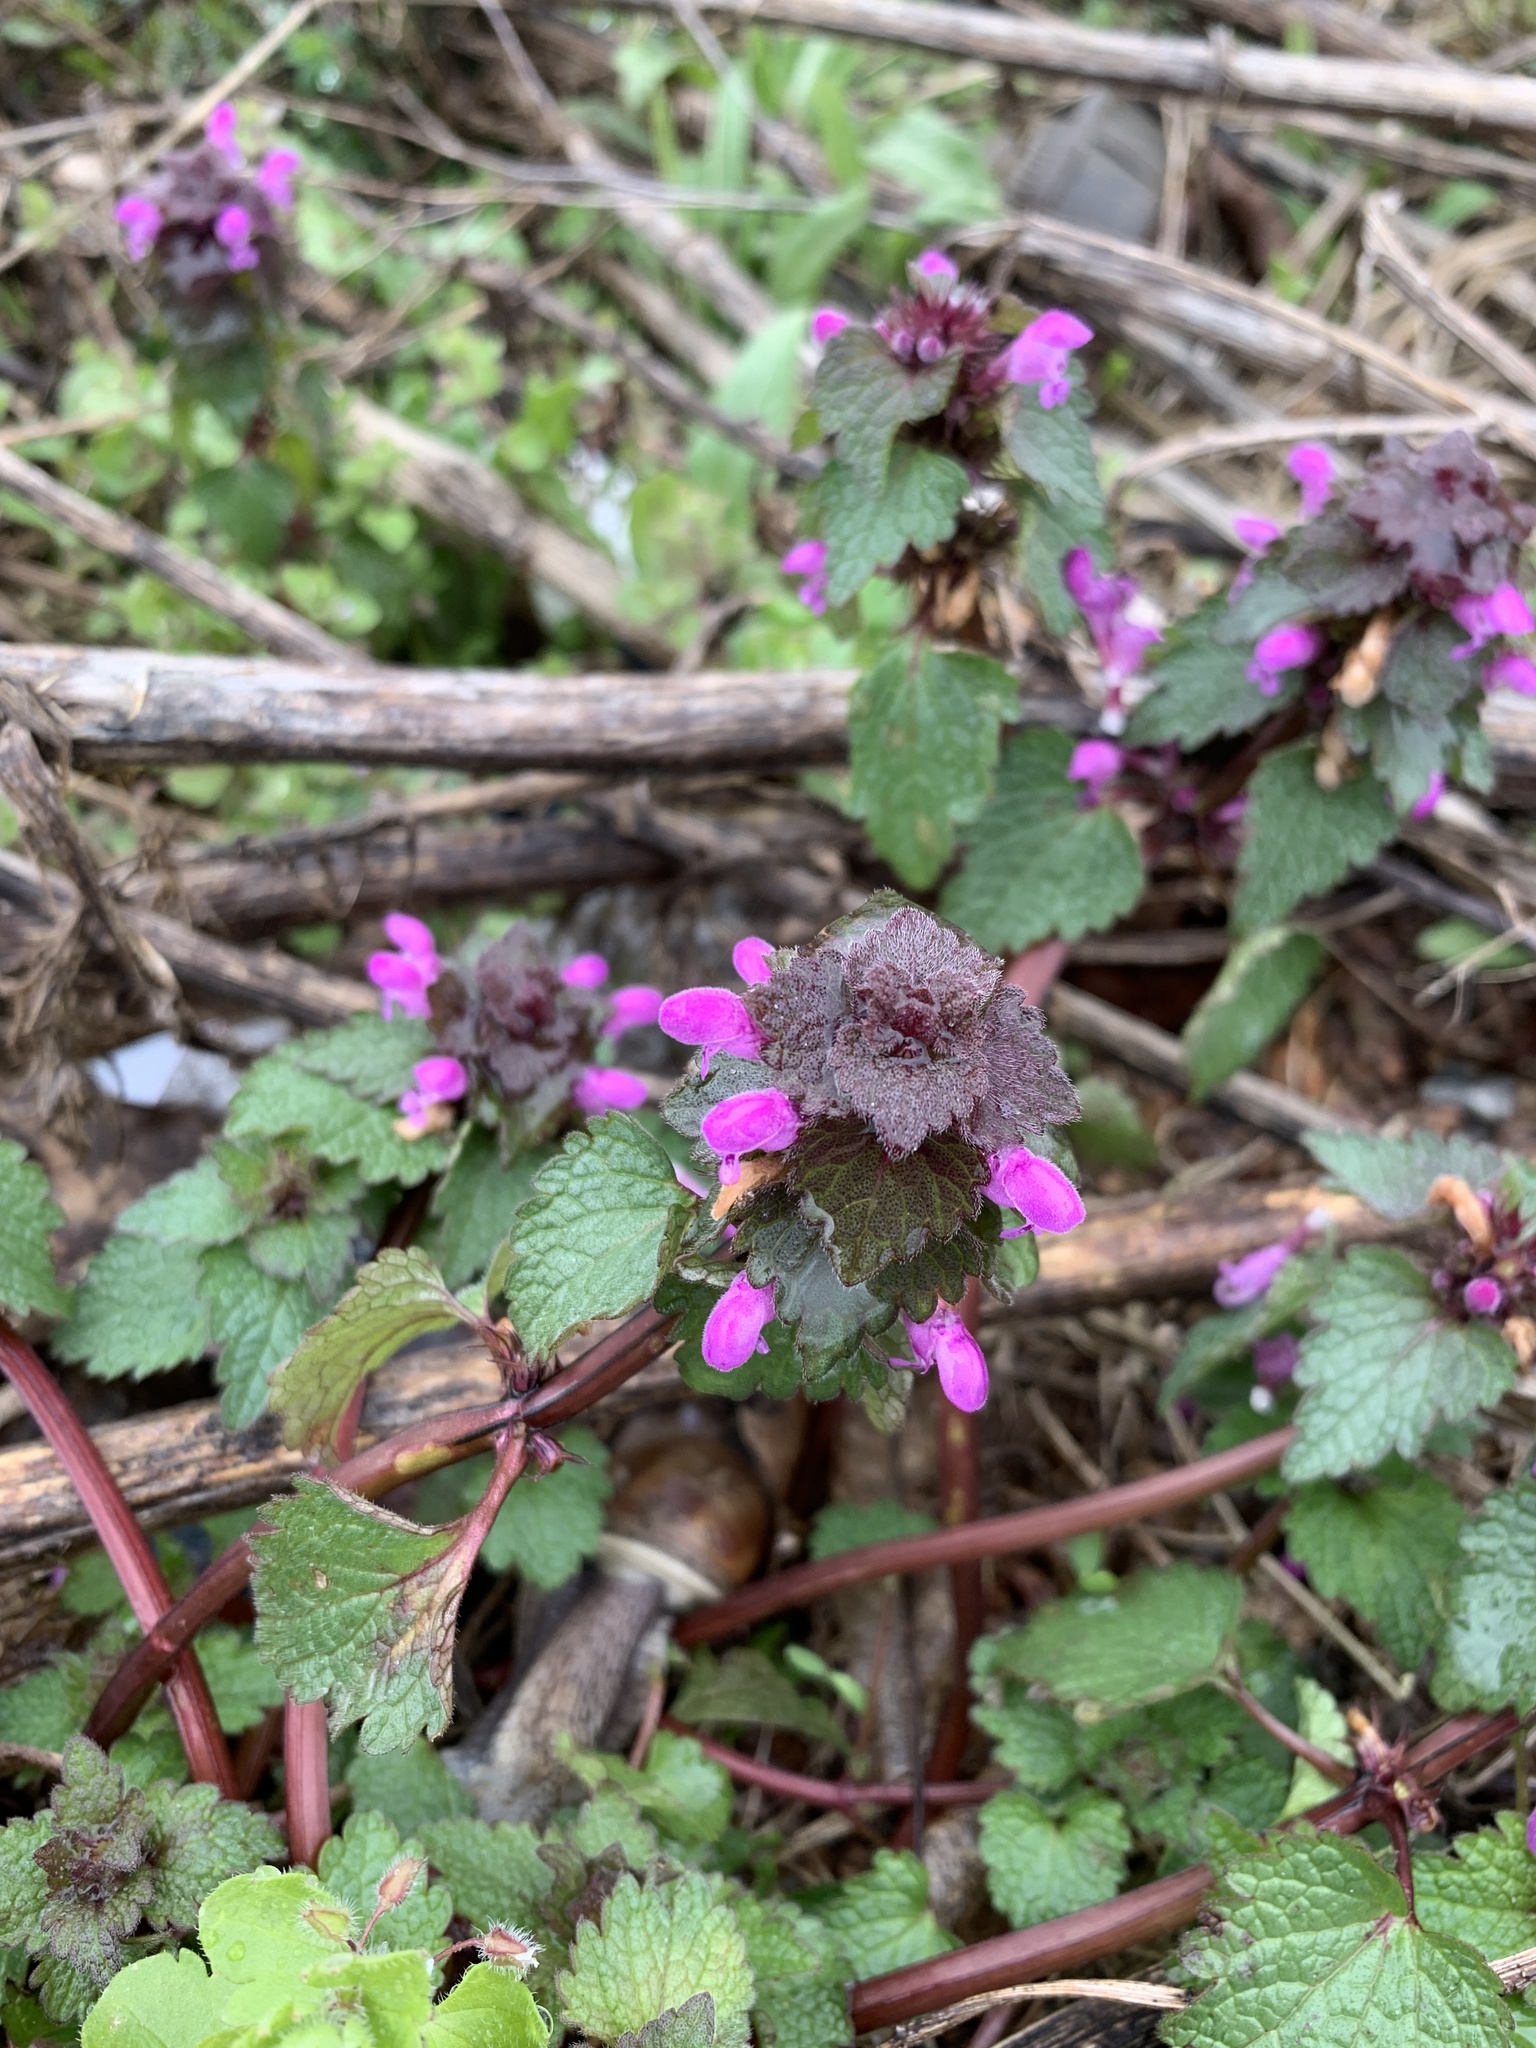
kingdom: Plantae
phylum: Tracheophyta
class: Magnoliopsida
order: Lamiales
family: Lamiaceae
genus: Lamium
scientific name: Lamium purpureum
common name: Red dead-nettle
